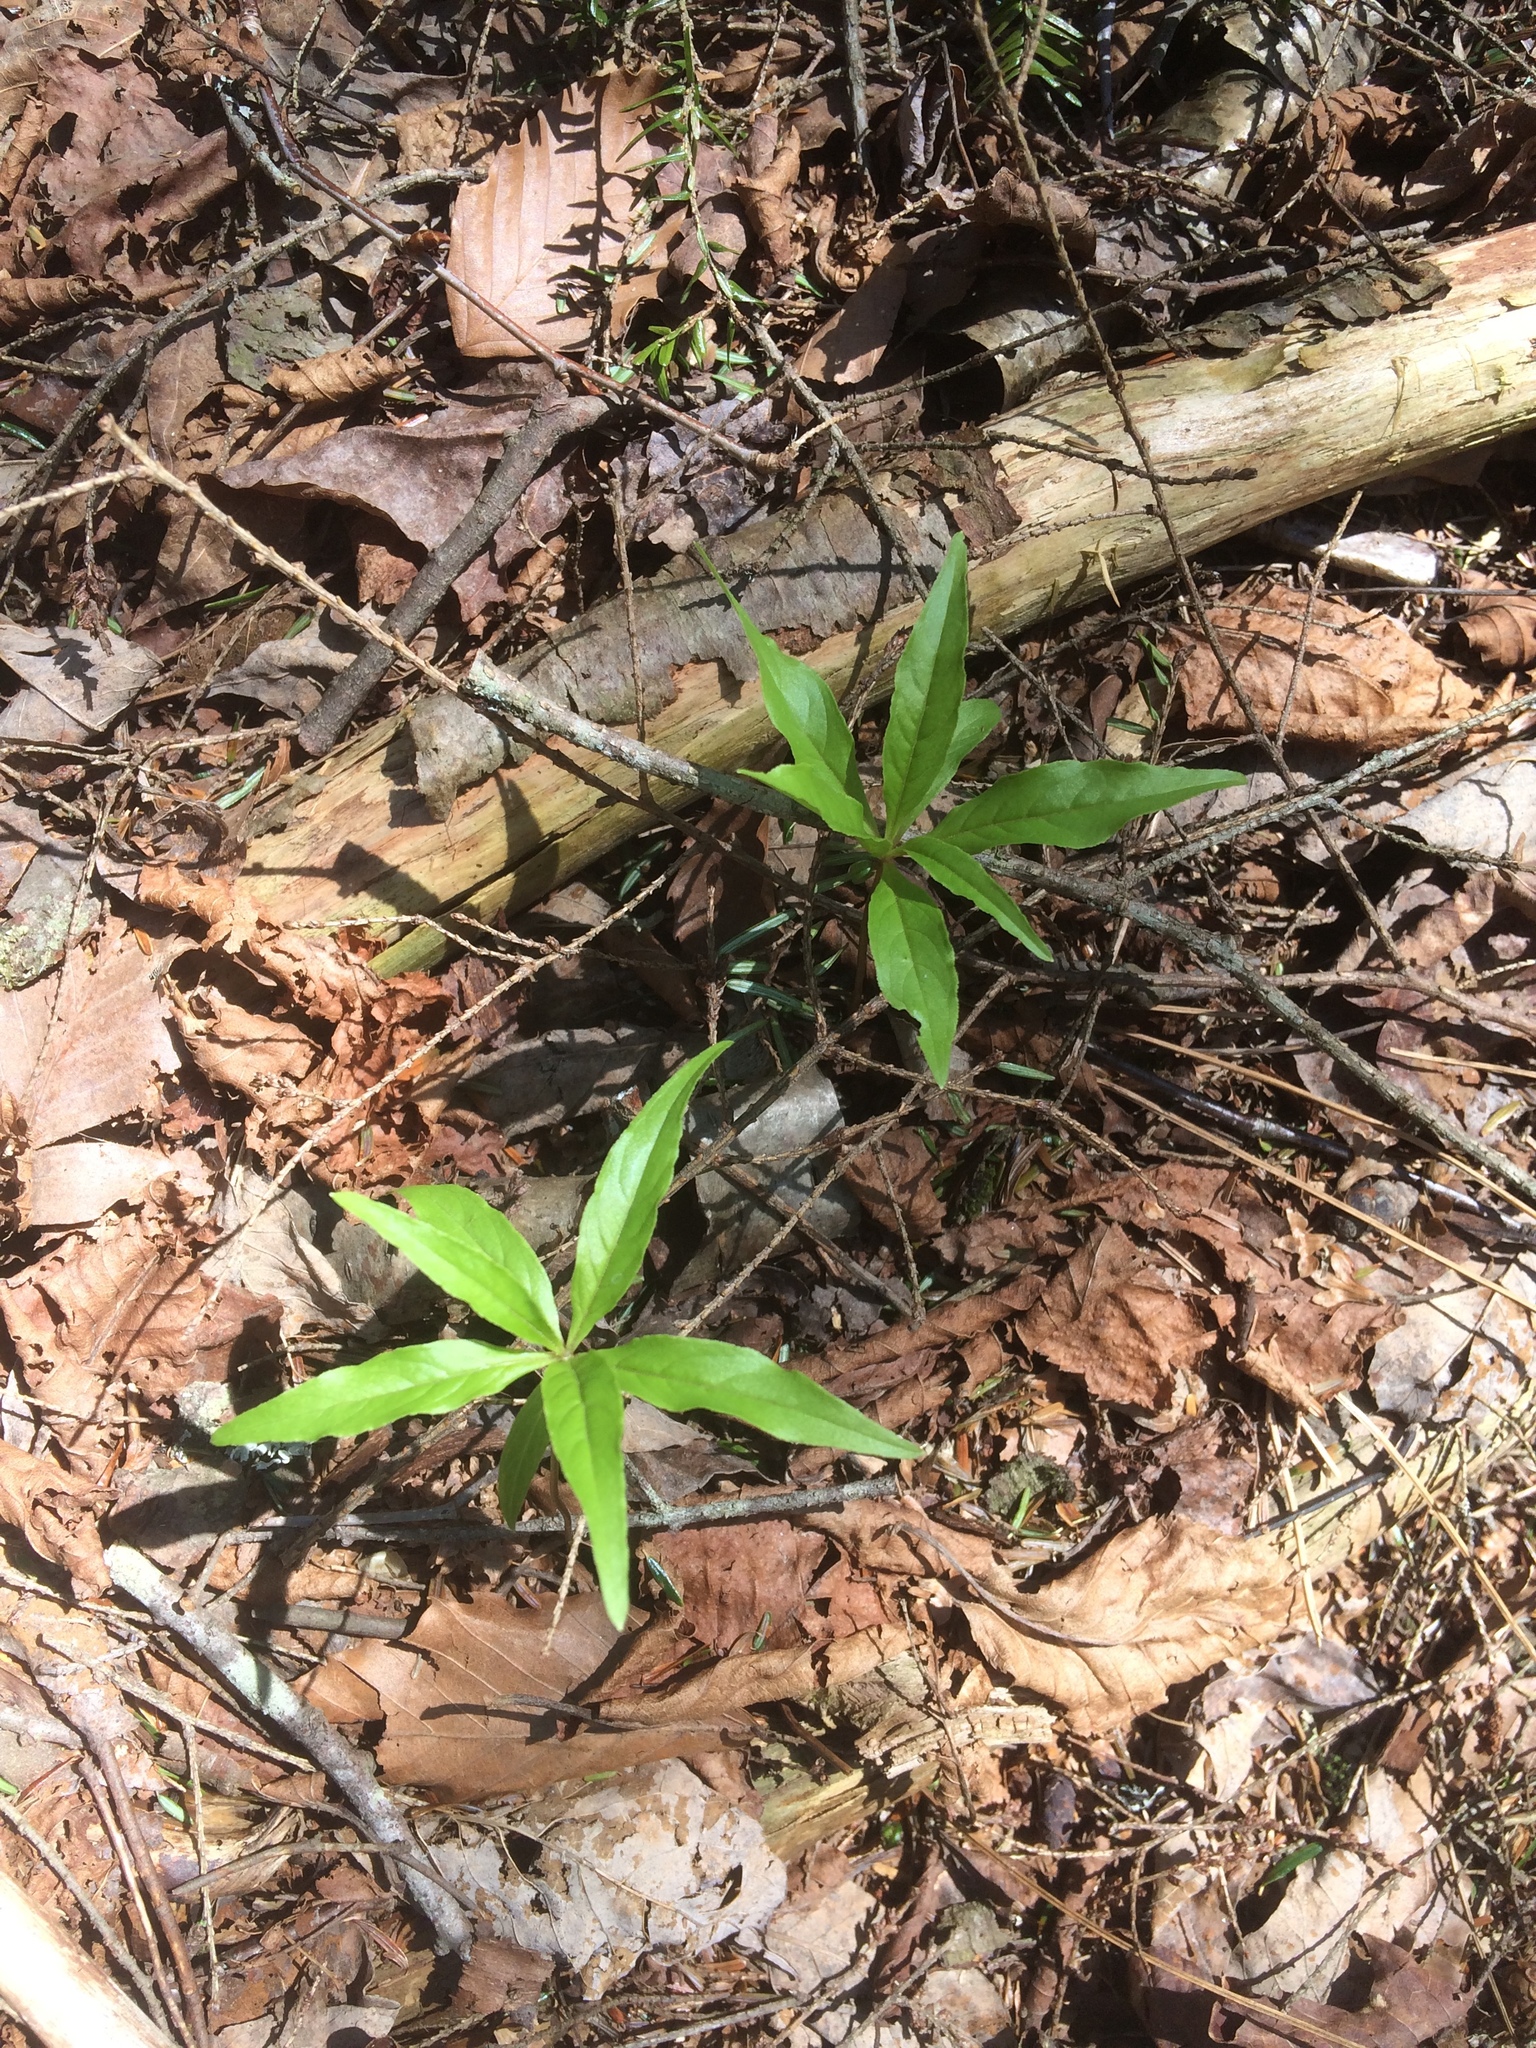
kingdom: Plantae
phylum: Tracheophyta
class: Magnoliopsida
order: Ericales
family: Primulaceae
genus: Lysimachia
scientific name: Lysimachia borealis
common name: American starflower
